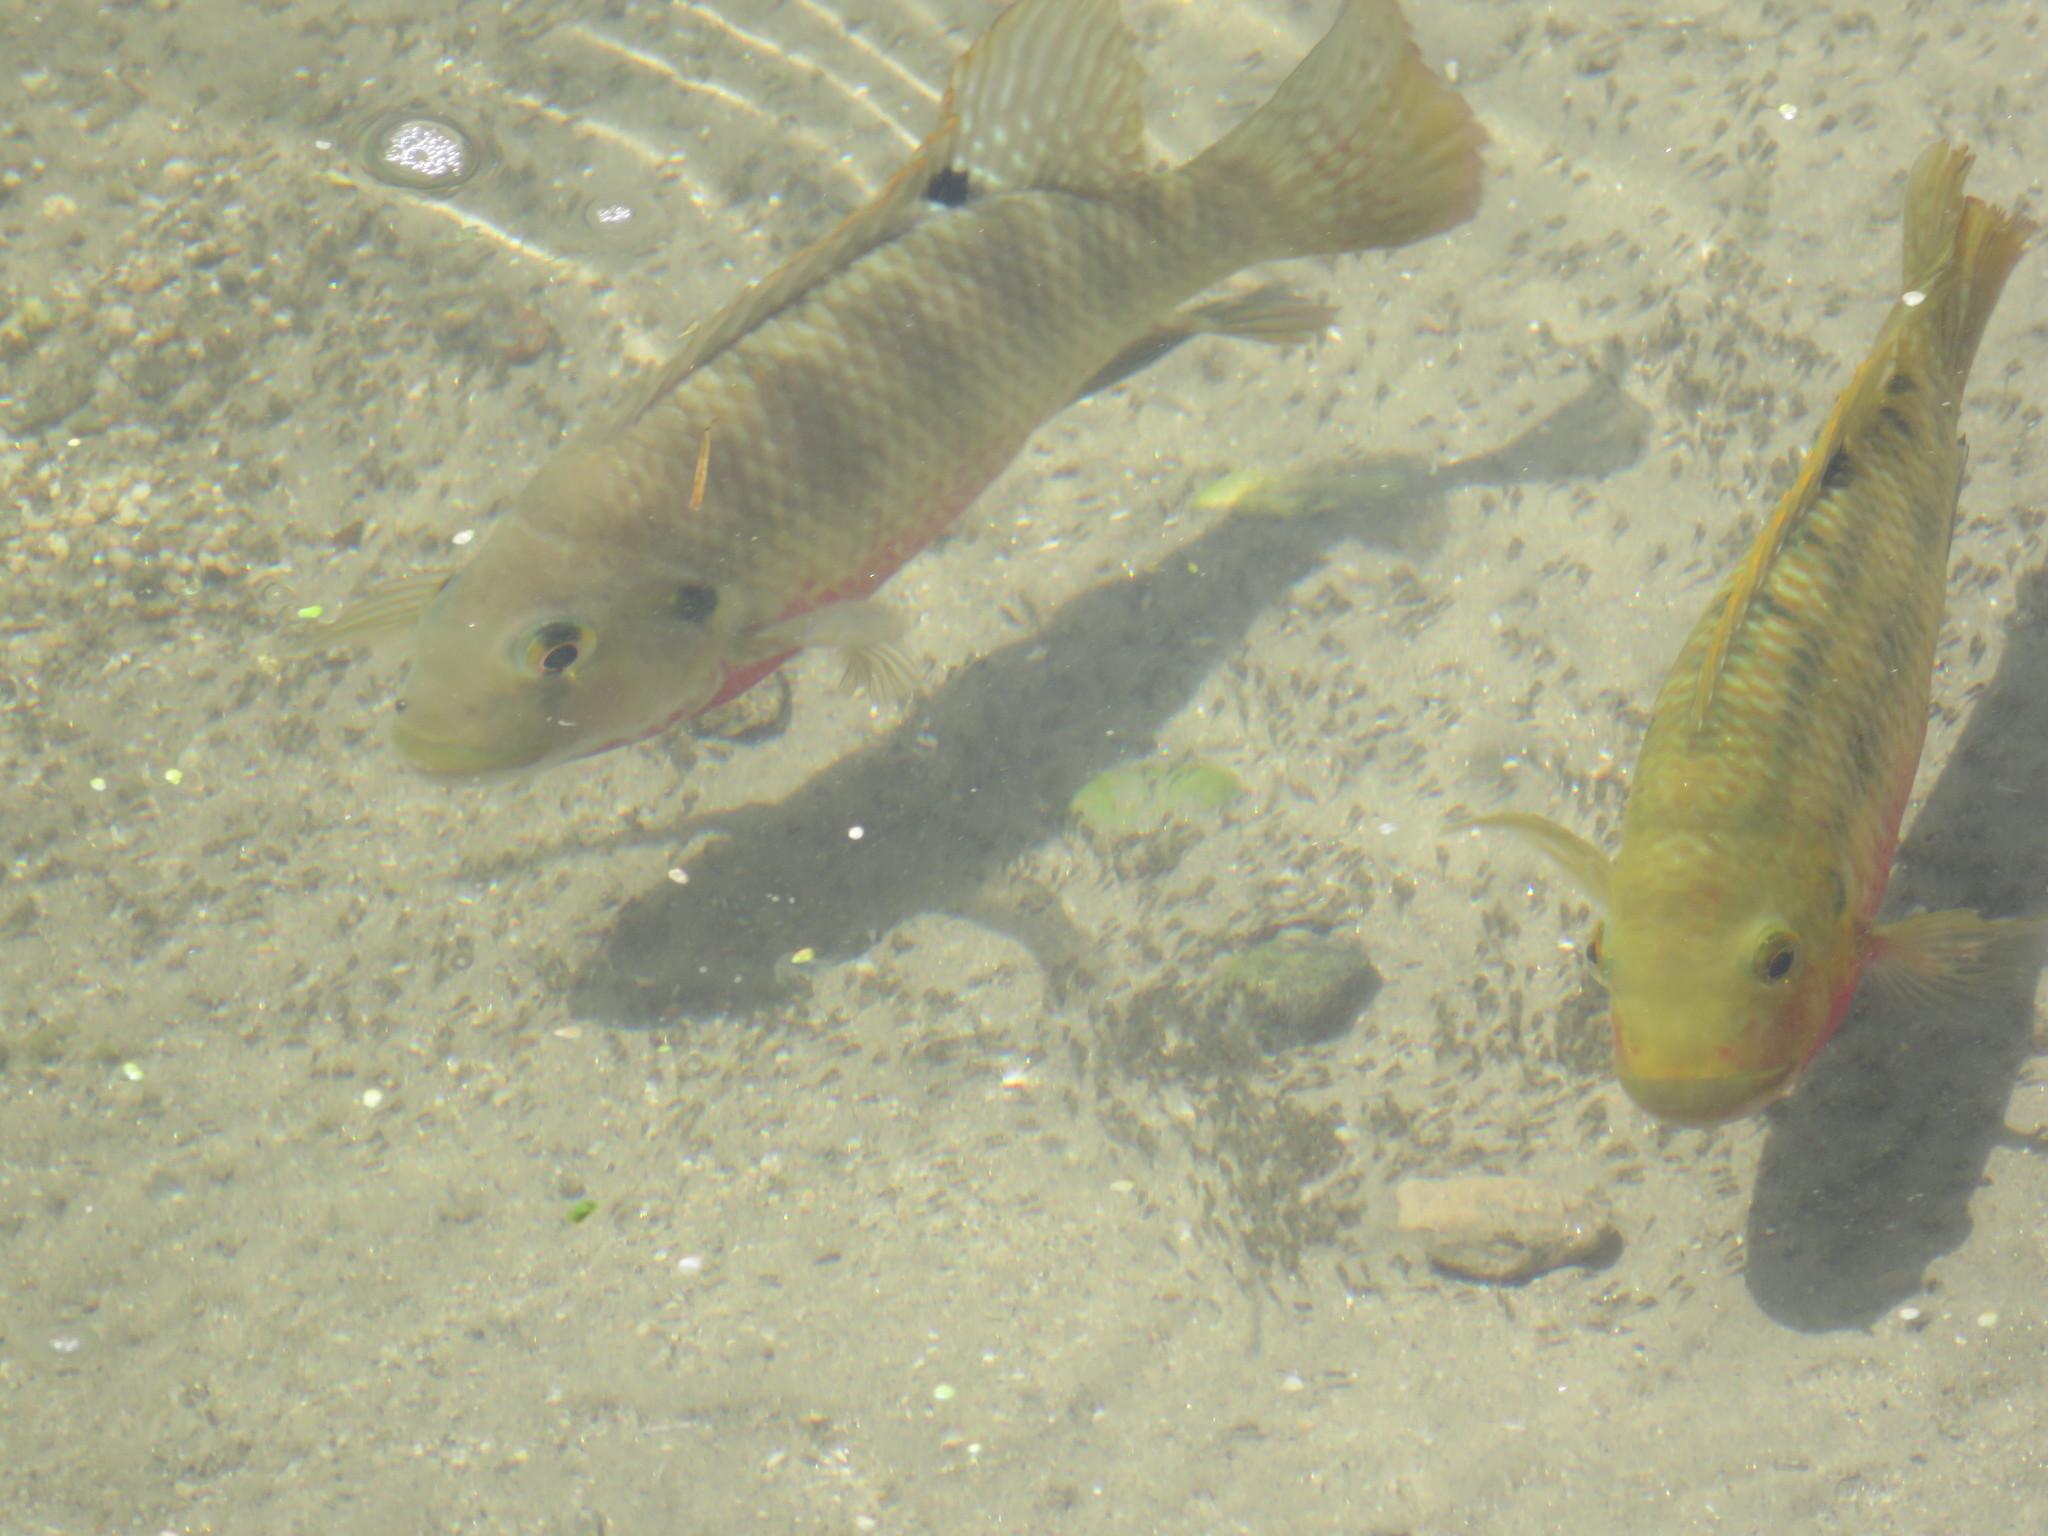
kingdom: Animalia
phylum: Chordata
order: Perciformes
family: Cichlidae
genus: Coptodon
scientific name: Coptodon zillii
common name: Redbelly tilapia
